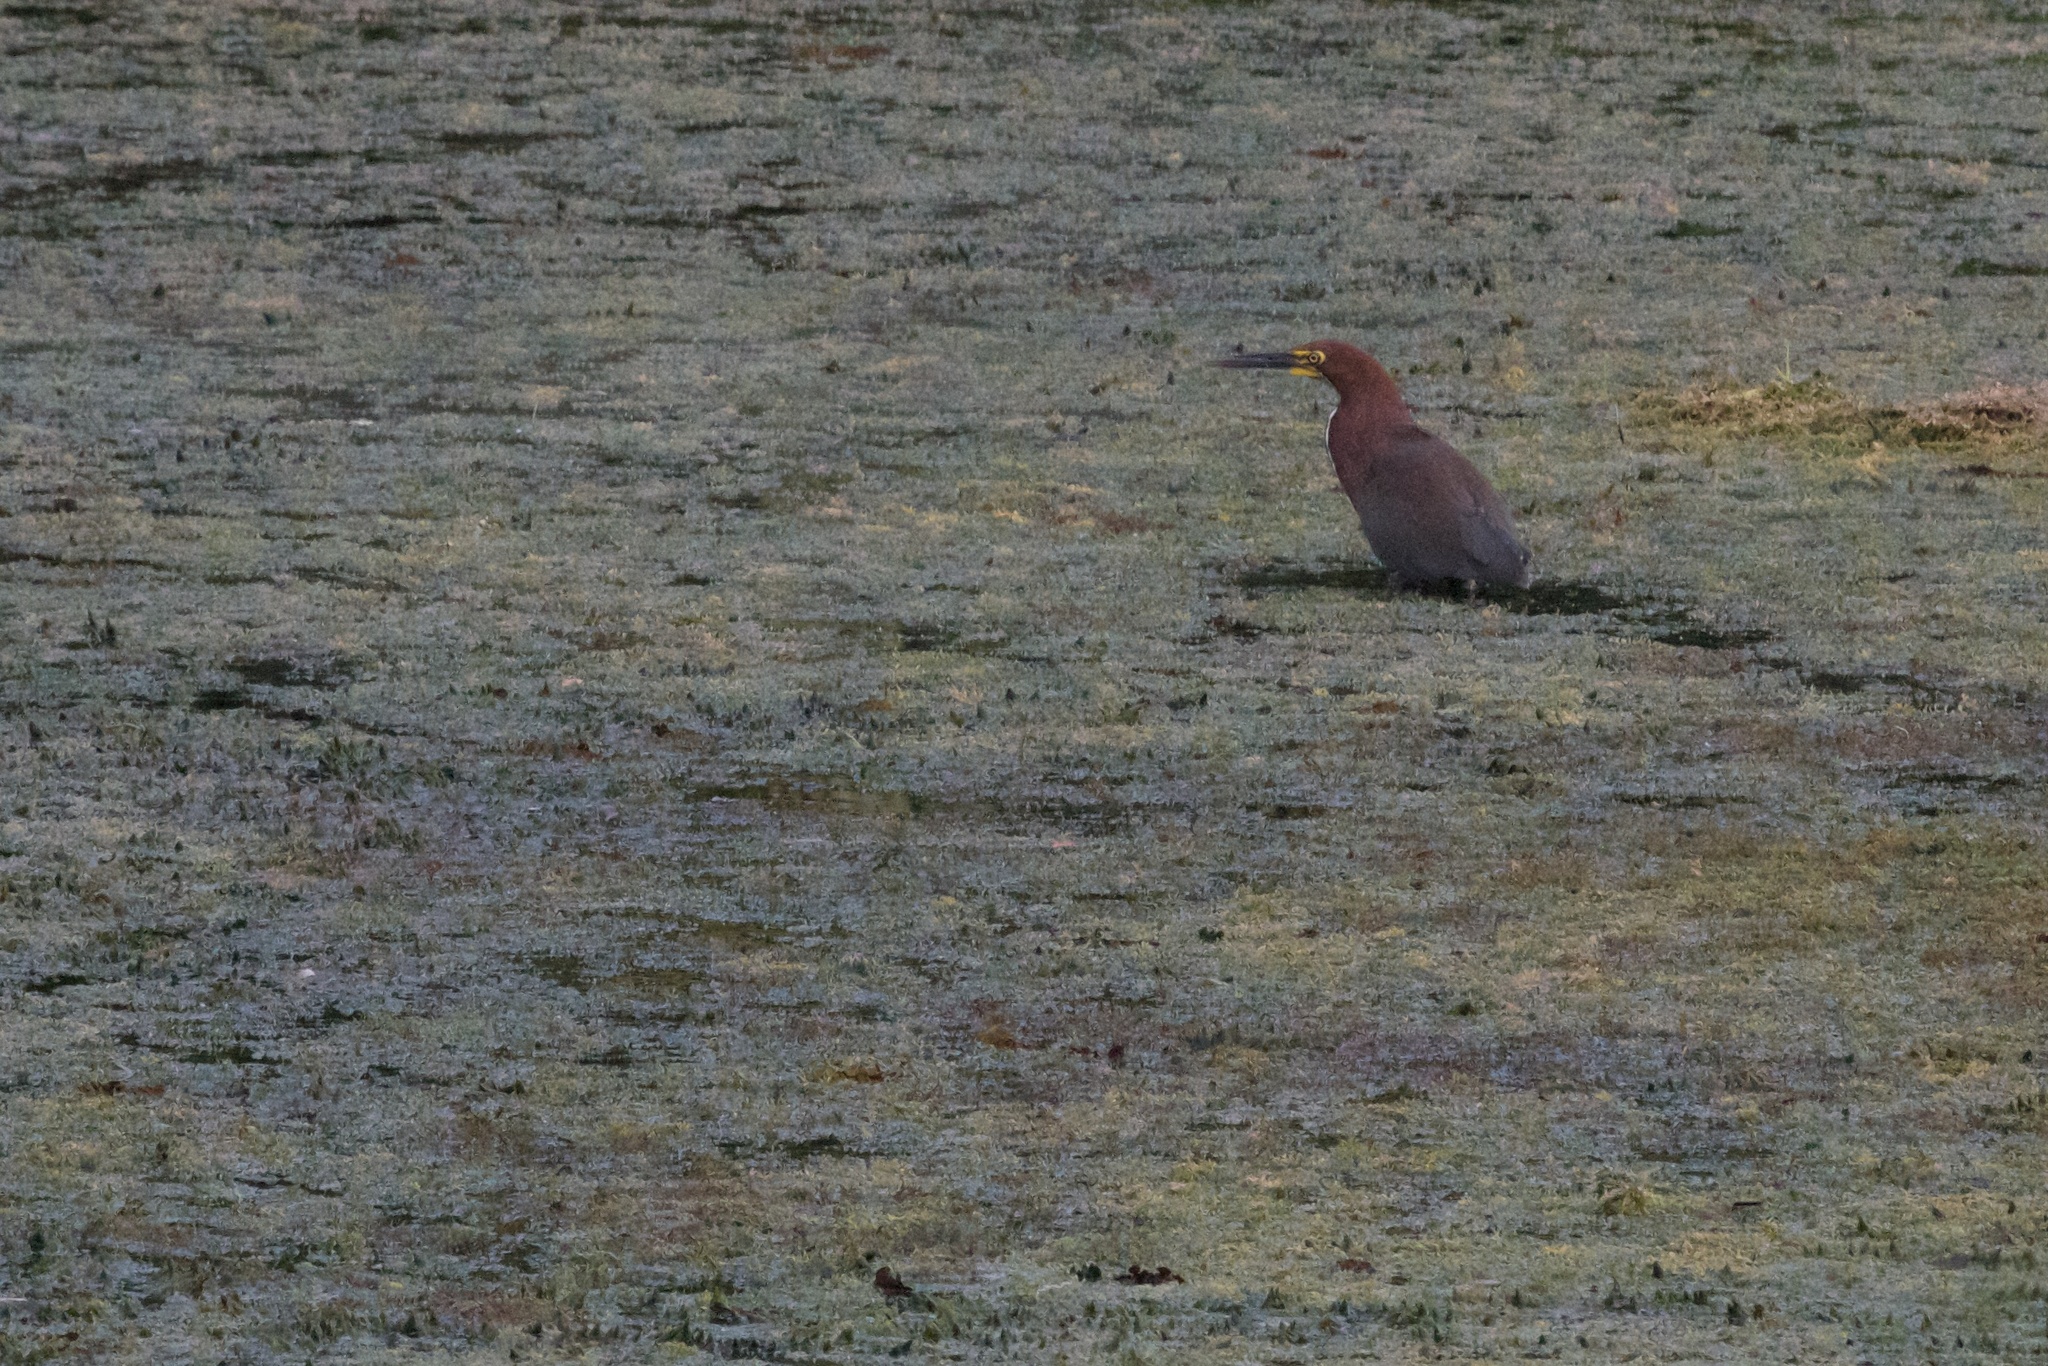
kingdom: Animalia
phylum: Chordata
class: Aves
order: Pelecaniformes
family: Ardeidae
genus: Tigrisoma
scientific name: Tigrisoma lineatum
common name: Rufescent tiger-heron
